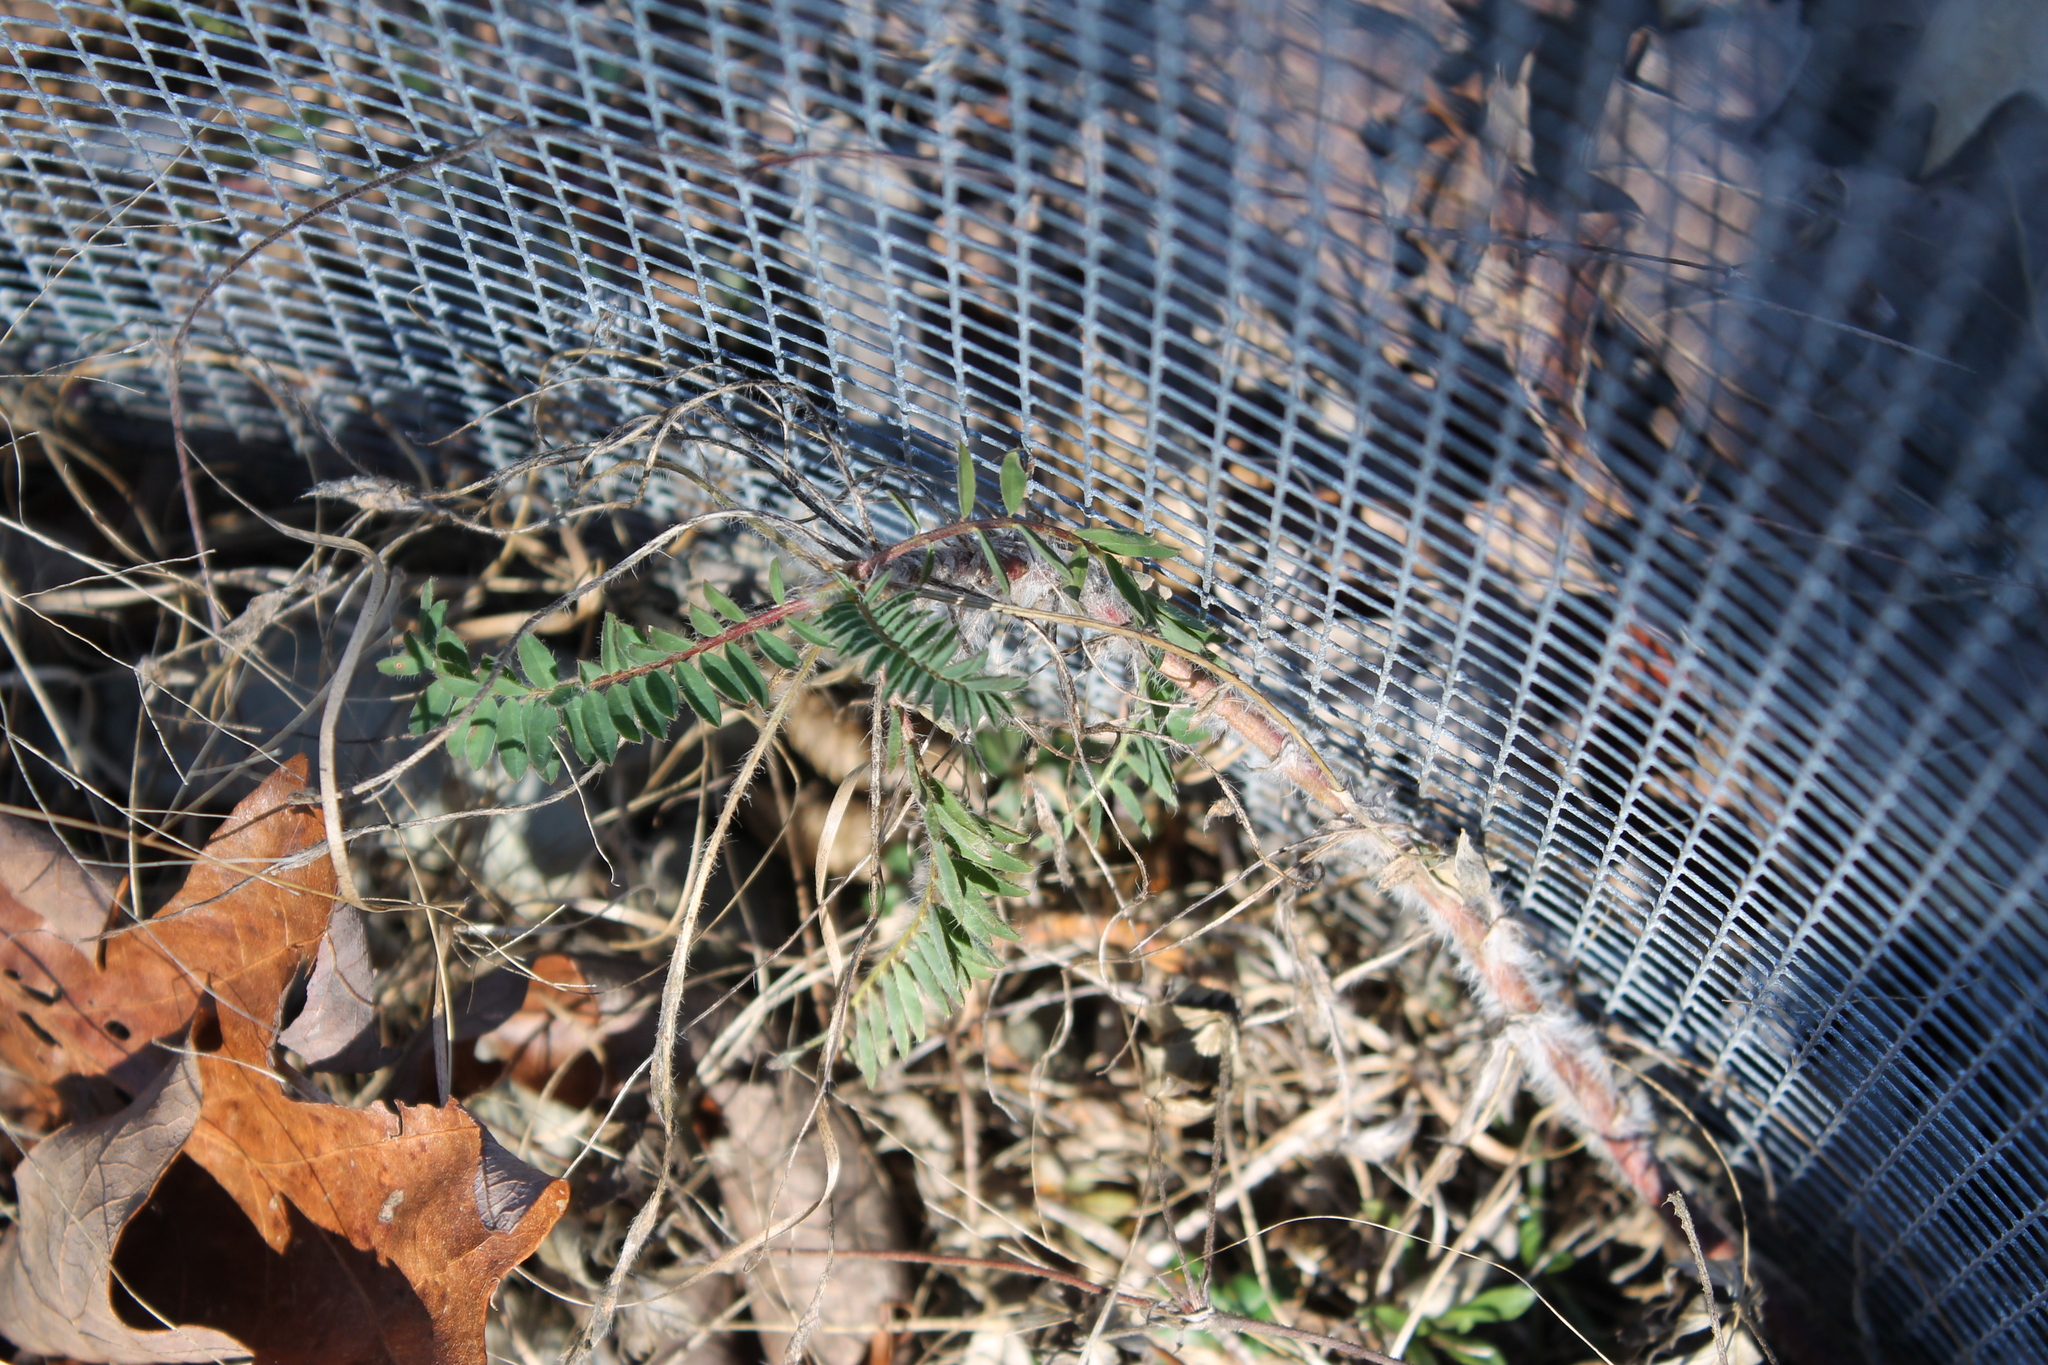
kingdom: Plantae
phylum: Tracheophyta
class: Magnoliopsida
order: Fabales
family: Fabaceae
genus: Astragalus
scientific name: Astragalus tennesseensis
